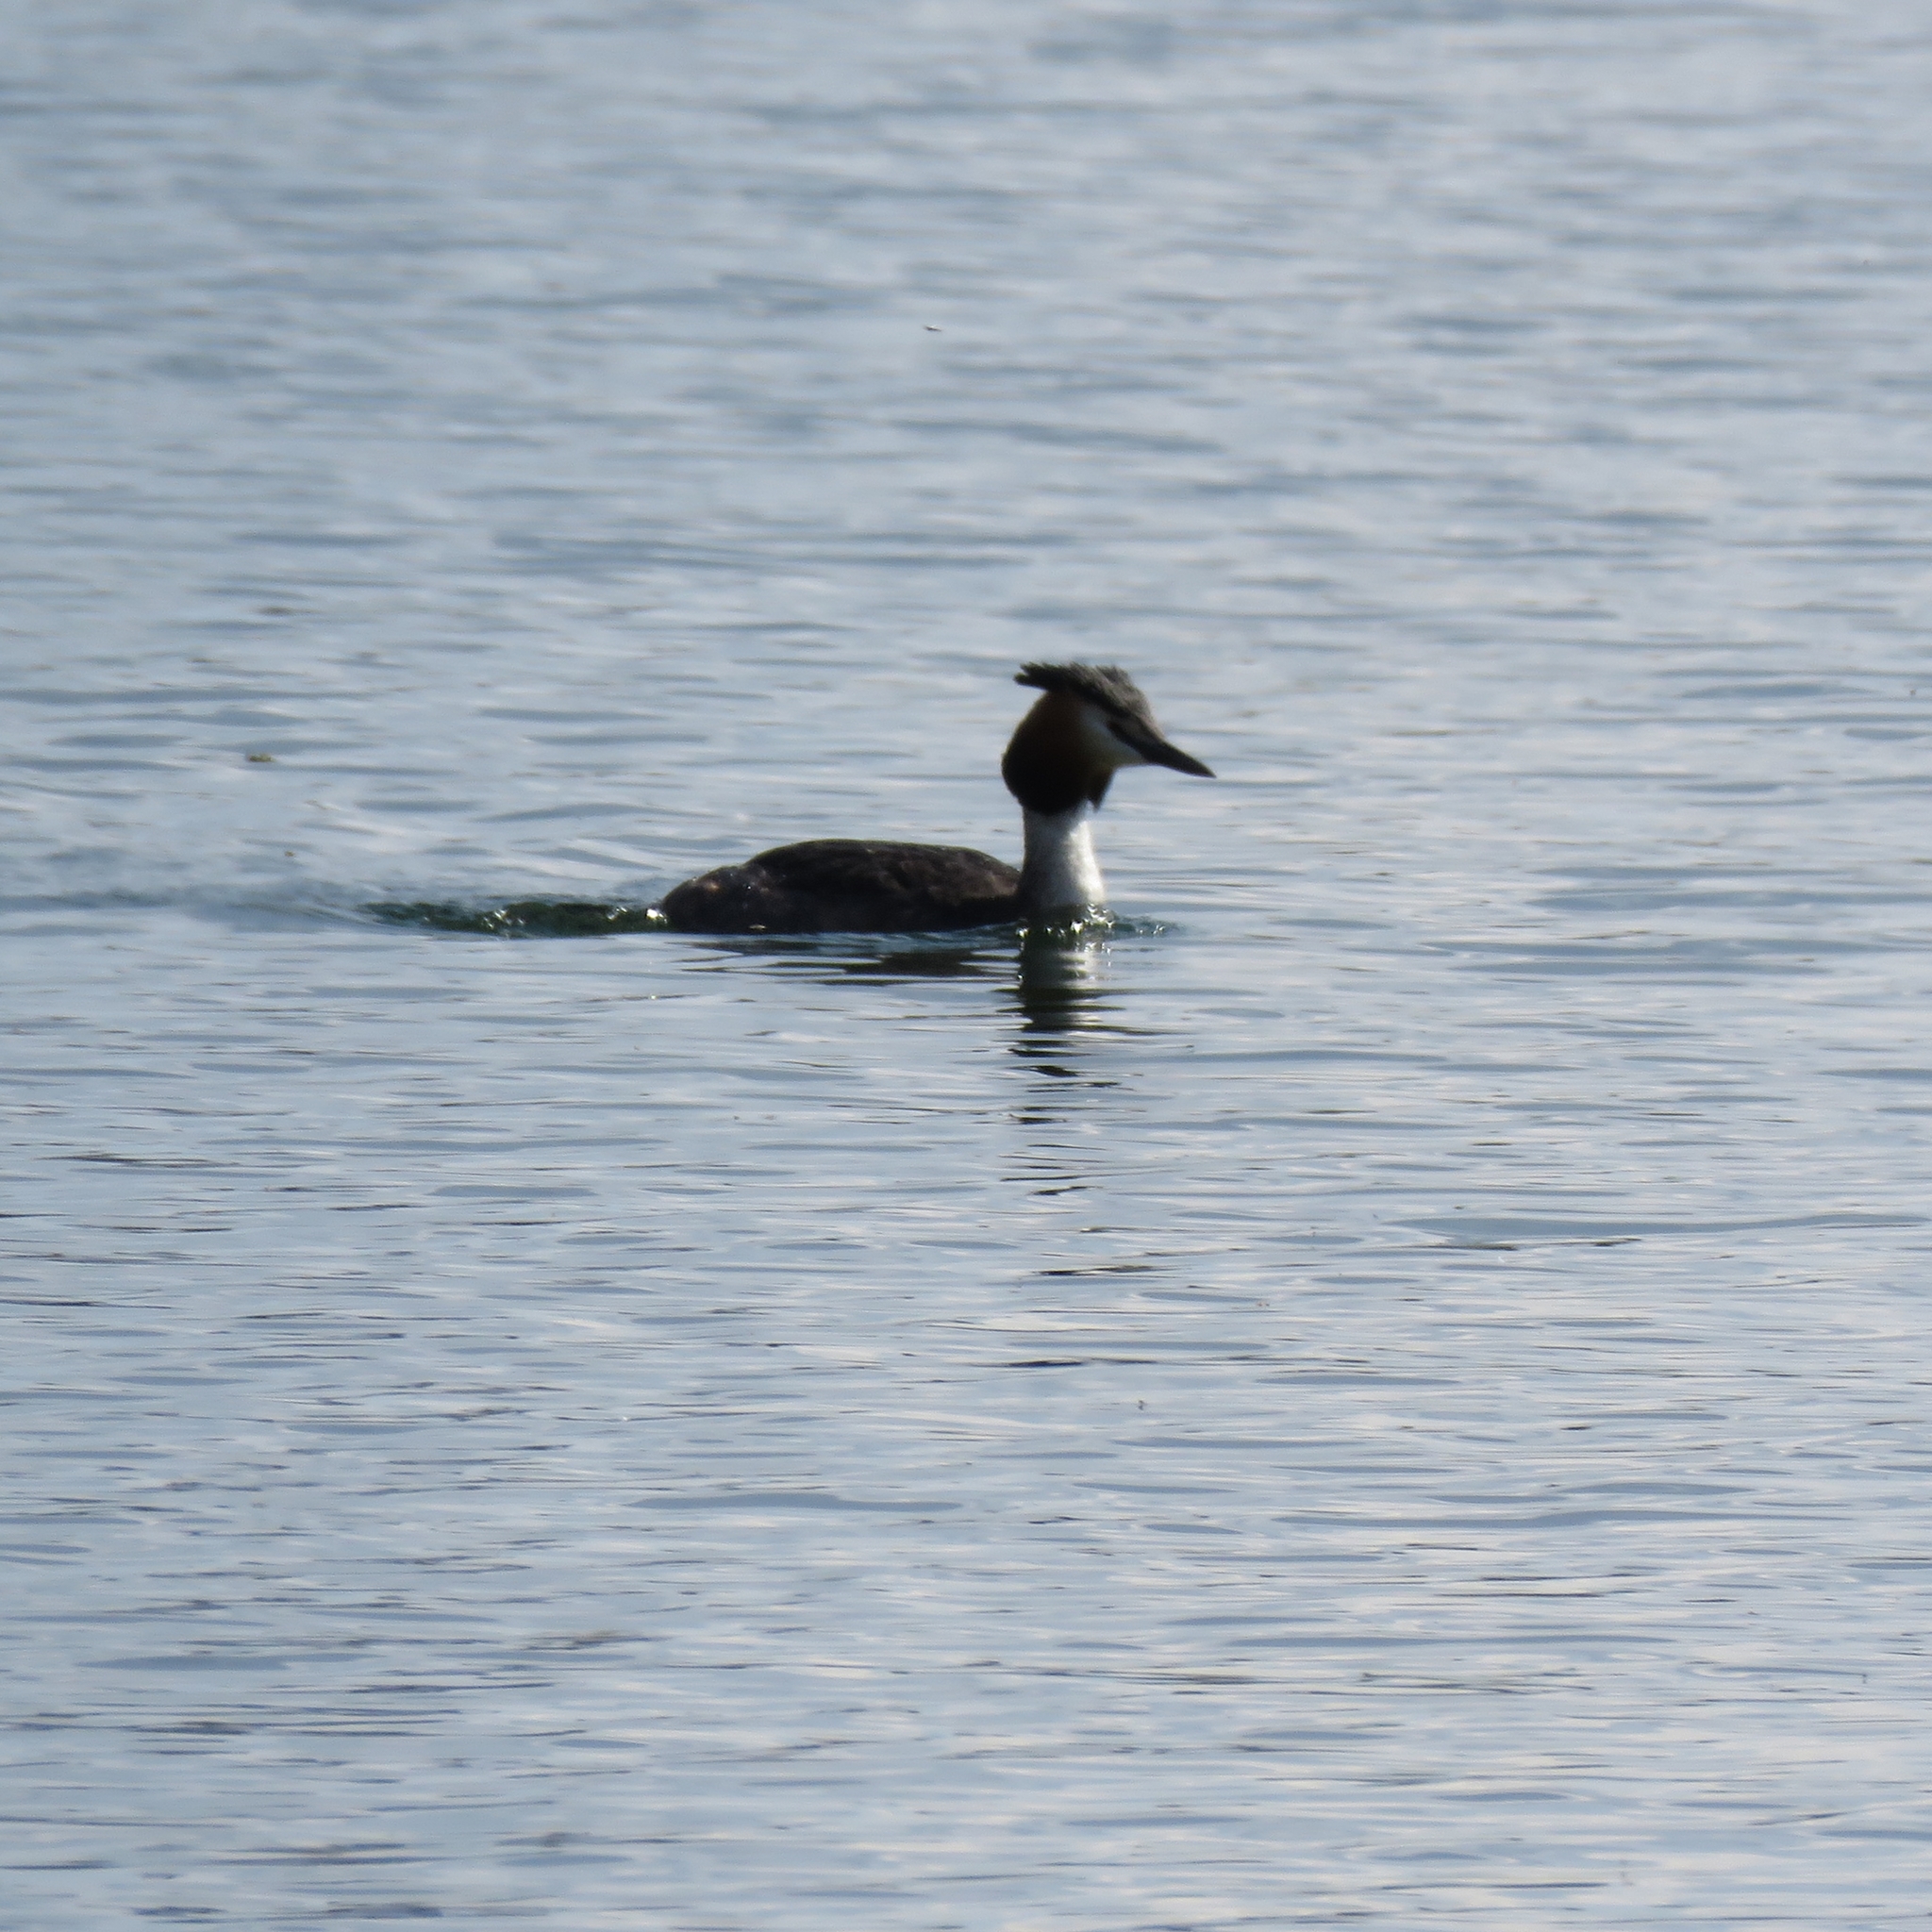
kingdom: Animalia
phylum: Chordata
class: Aves
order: Podicipediformes
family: Podicipedidae
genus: Podiceps
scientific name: Podiceps cristatus
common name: Great crested grebe
